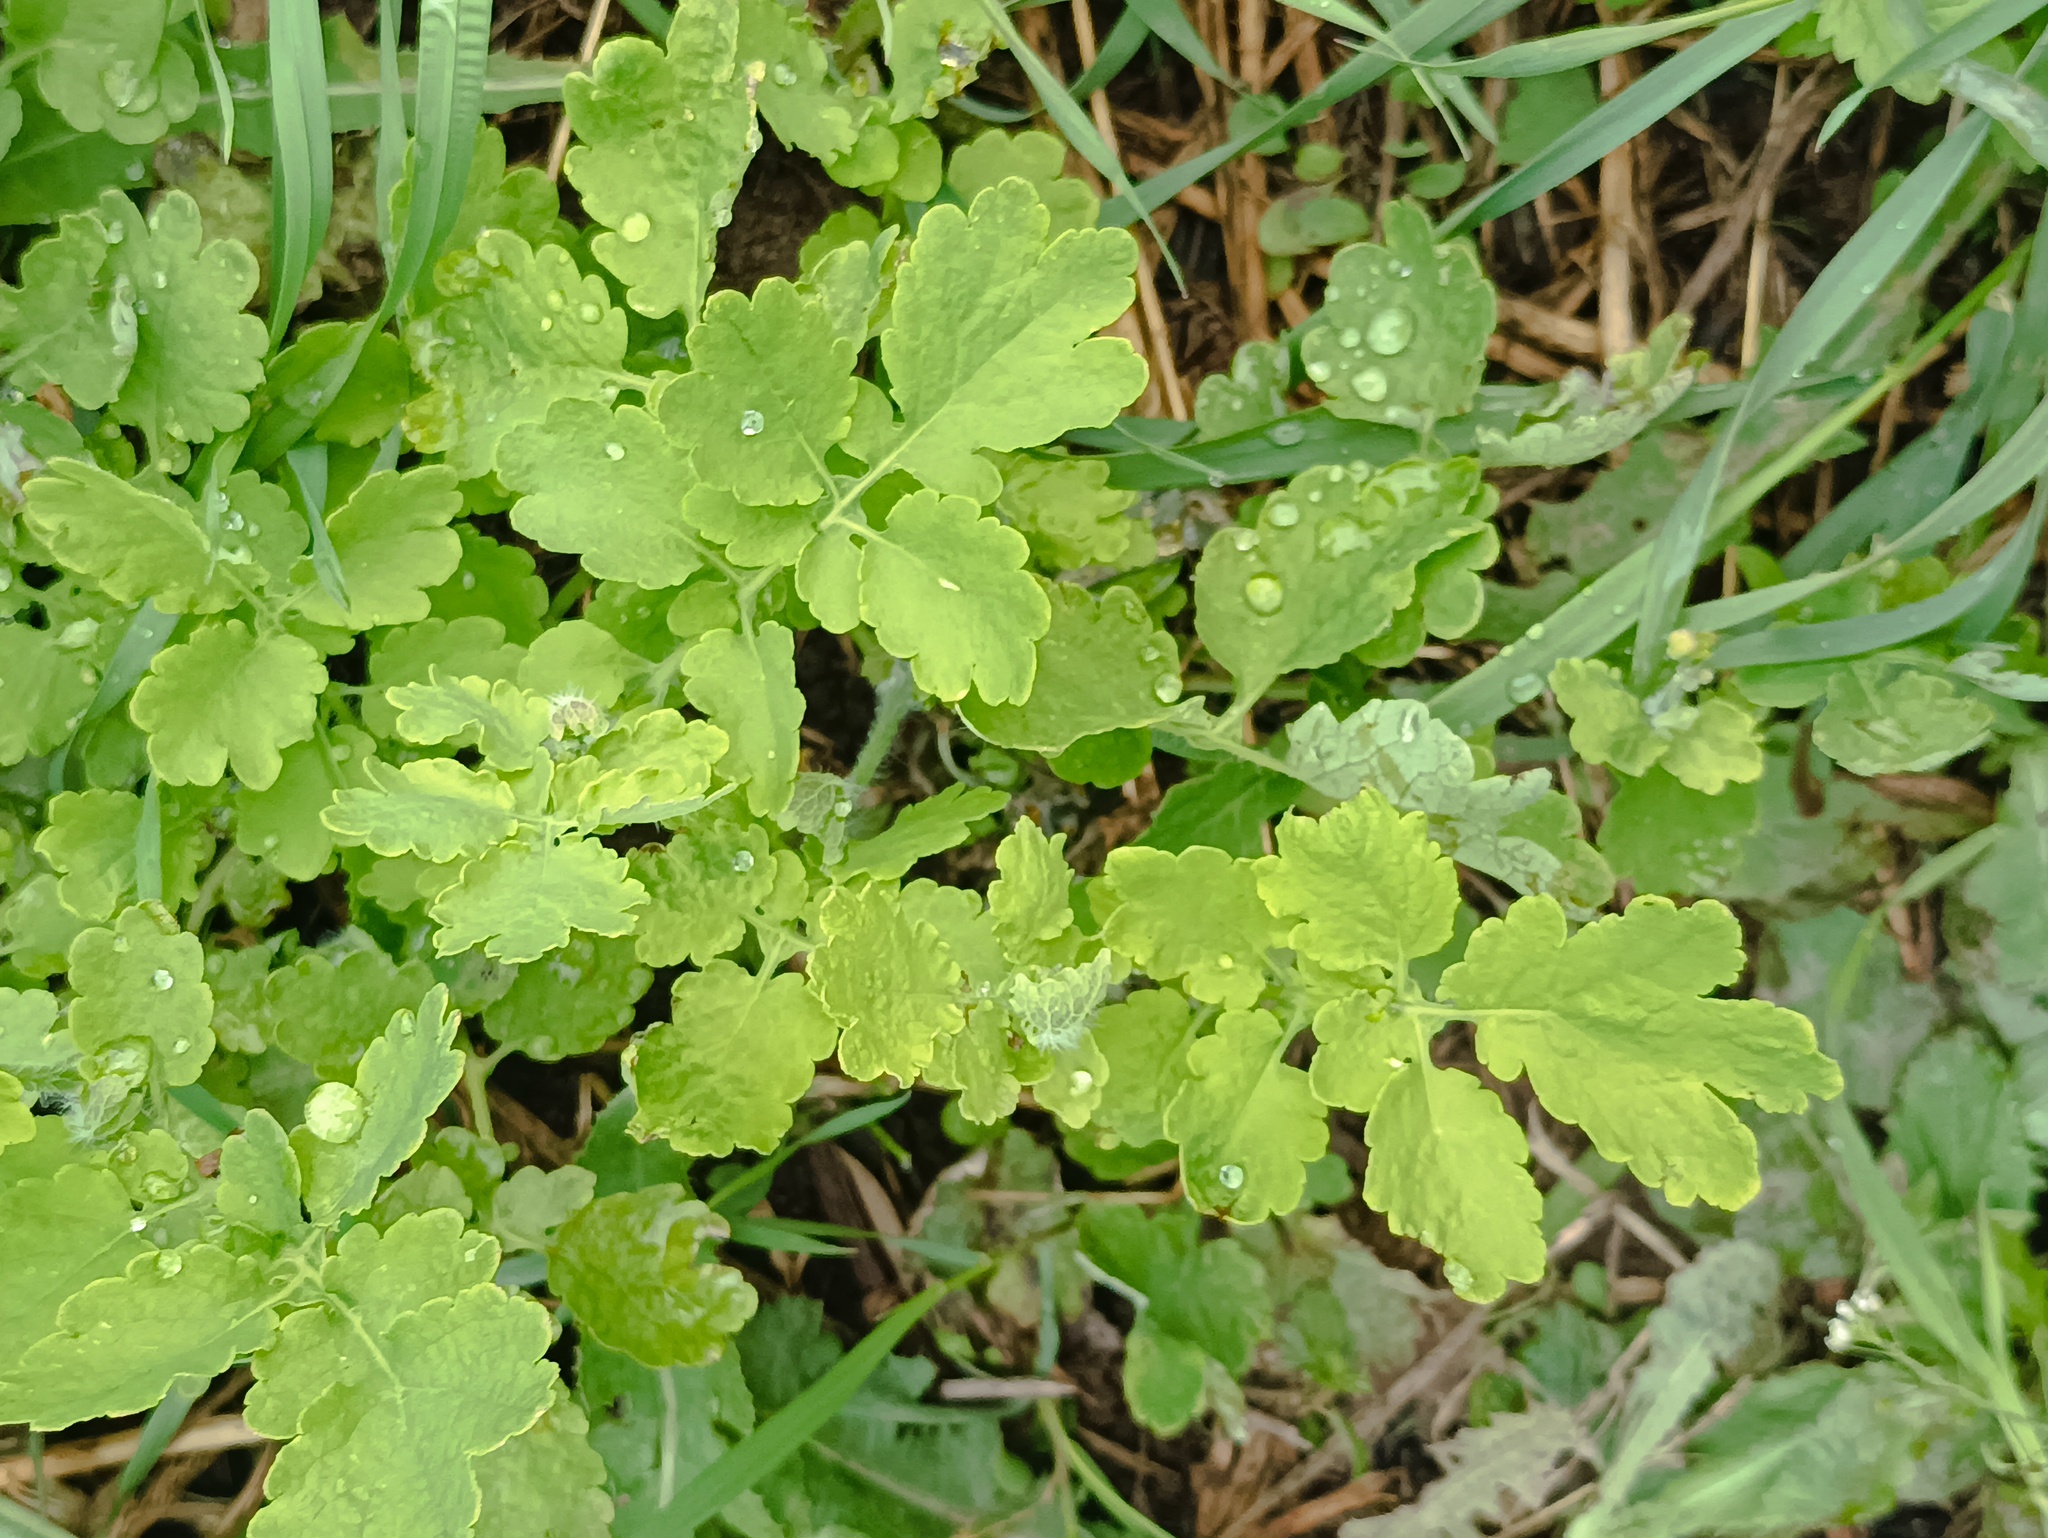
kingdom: Plantae
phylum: Tracheophyta
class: Magnoliopsida
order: Ranunculales
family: Papaveraceae
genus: Chelidonium
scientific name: Chelidonium majus
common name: Greater celandine
